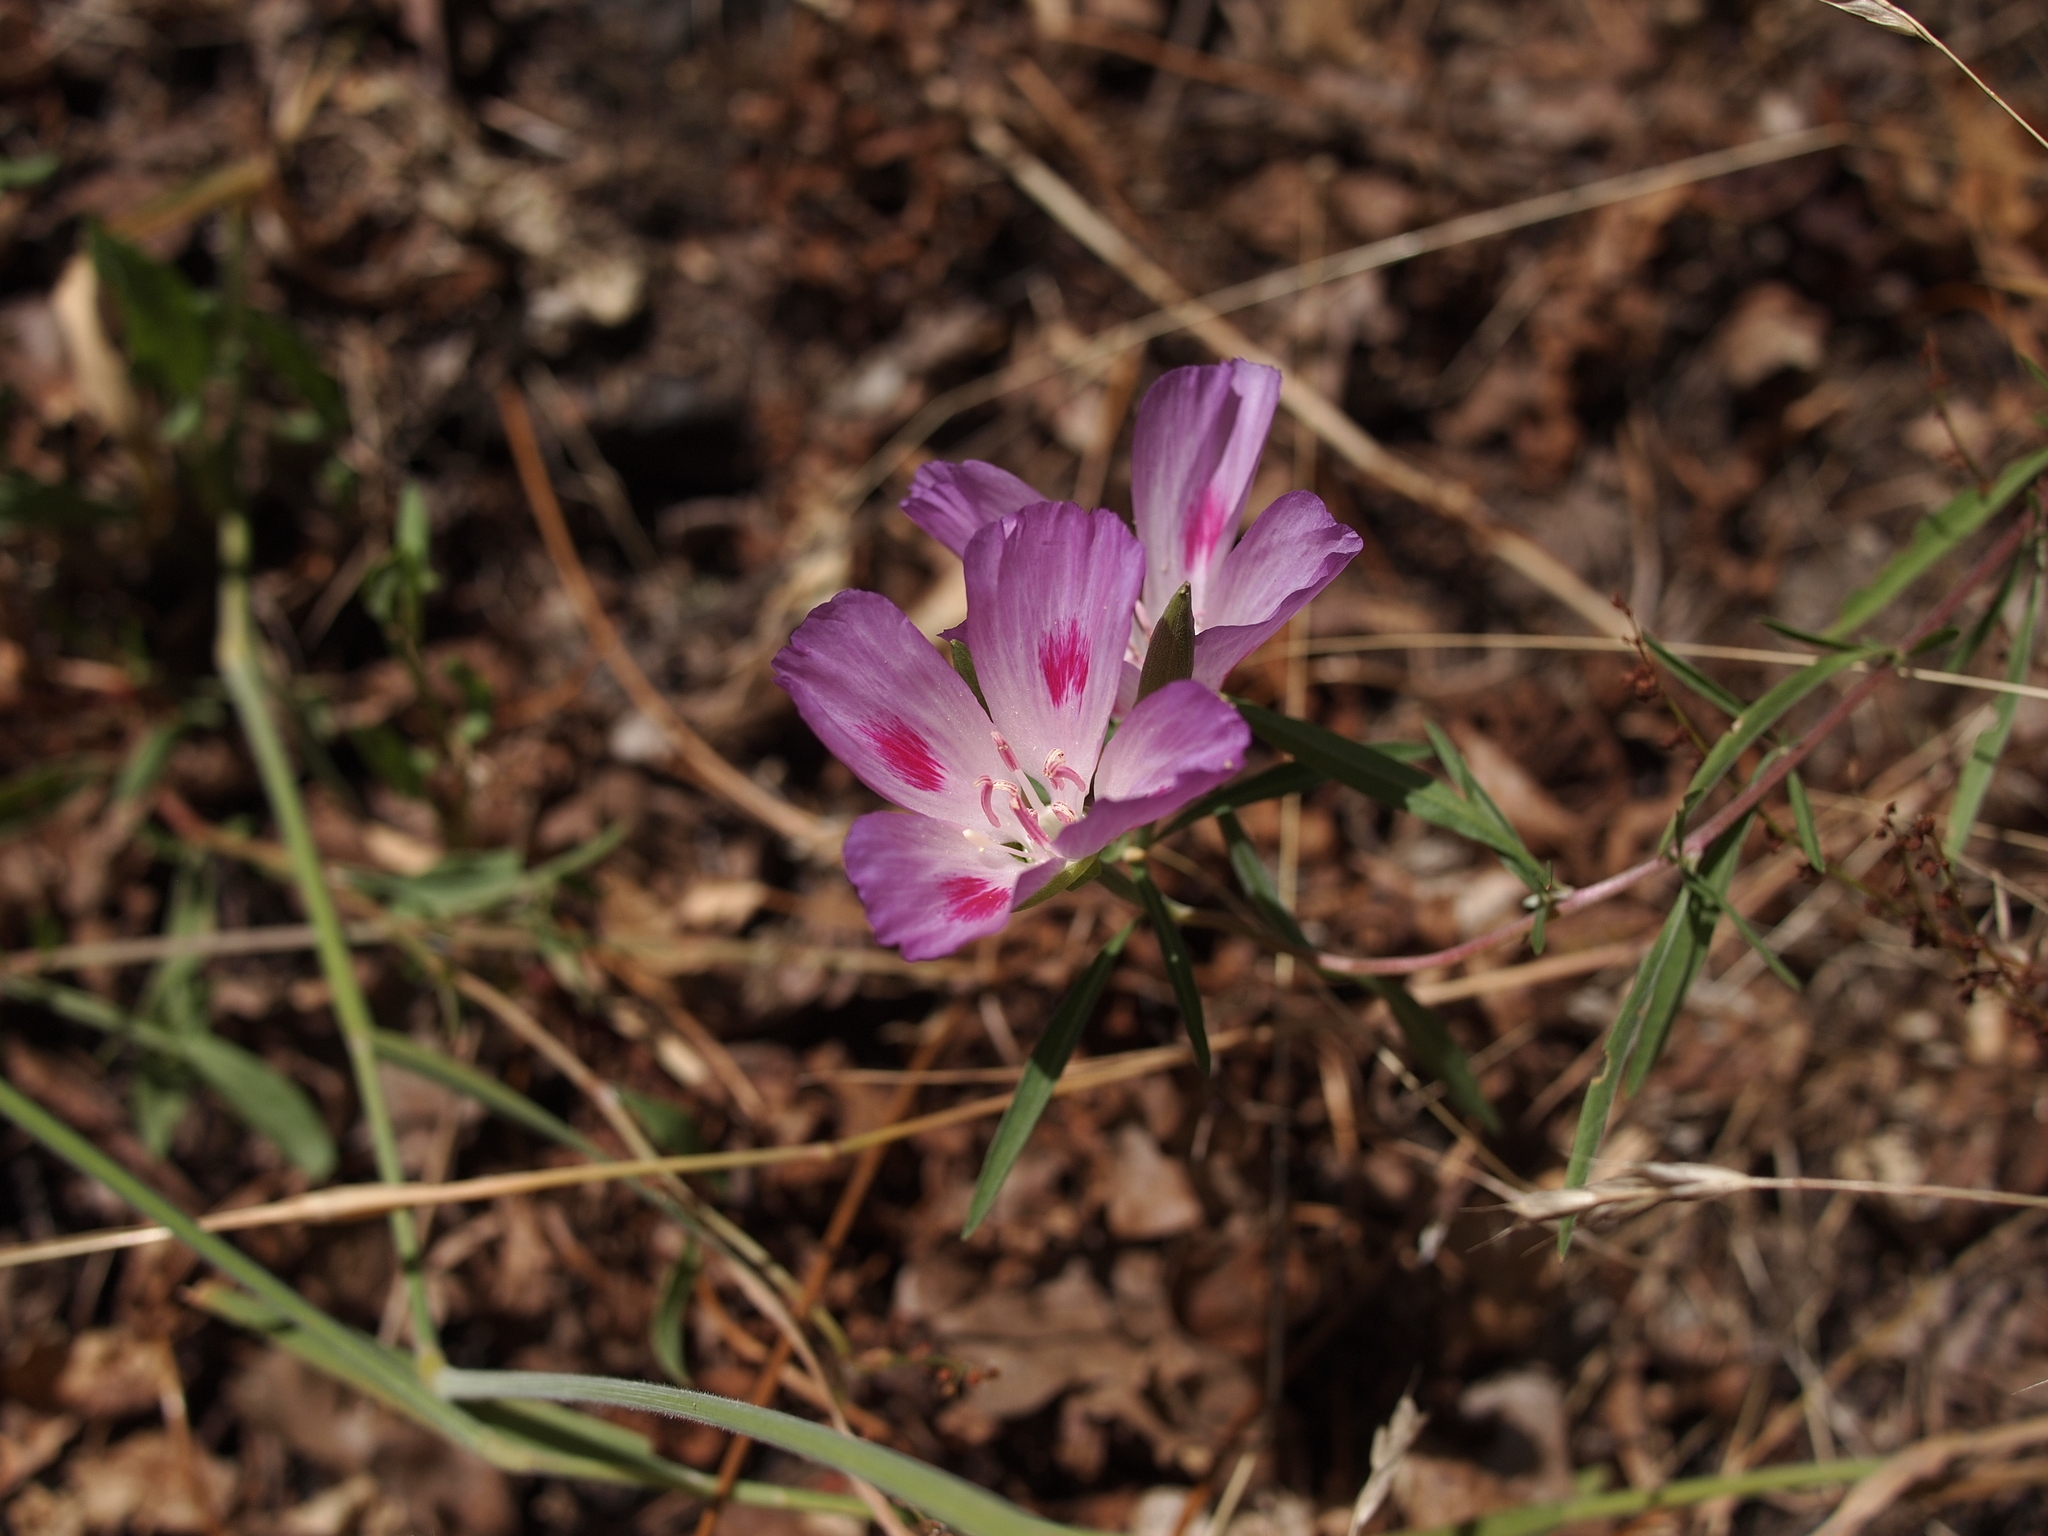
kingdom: Plantae
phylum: Tracheophyta
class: Magnoliopsida
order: Myrtales
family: Onagraceae
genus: Clarkia
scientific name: Clarkia amoena
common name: Godetia
